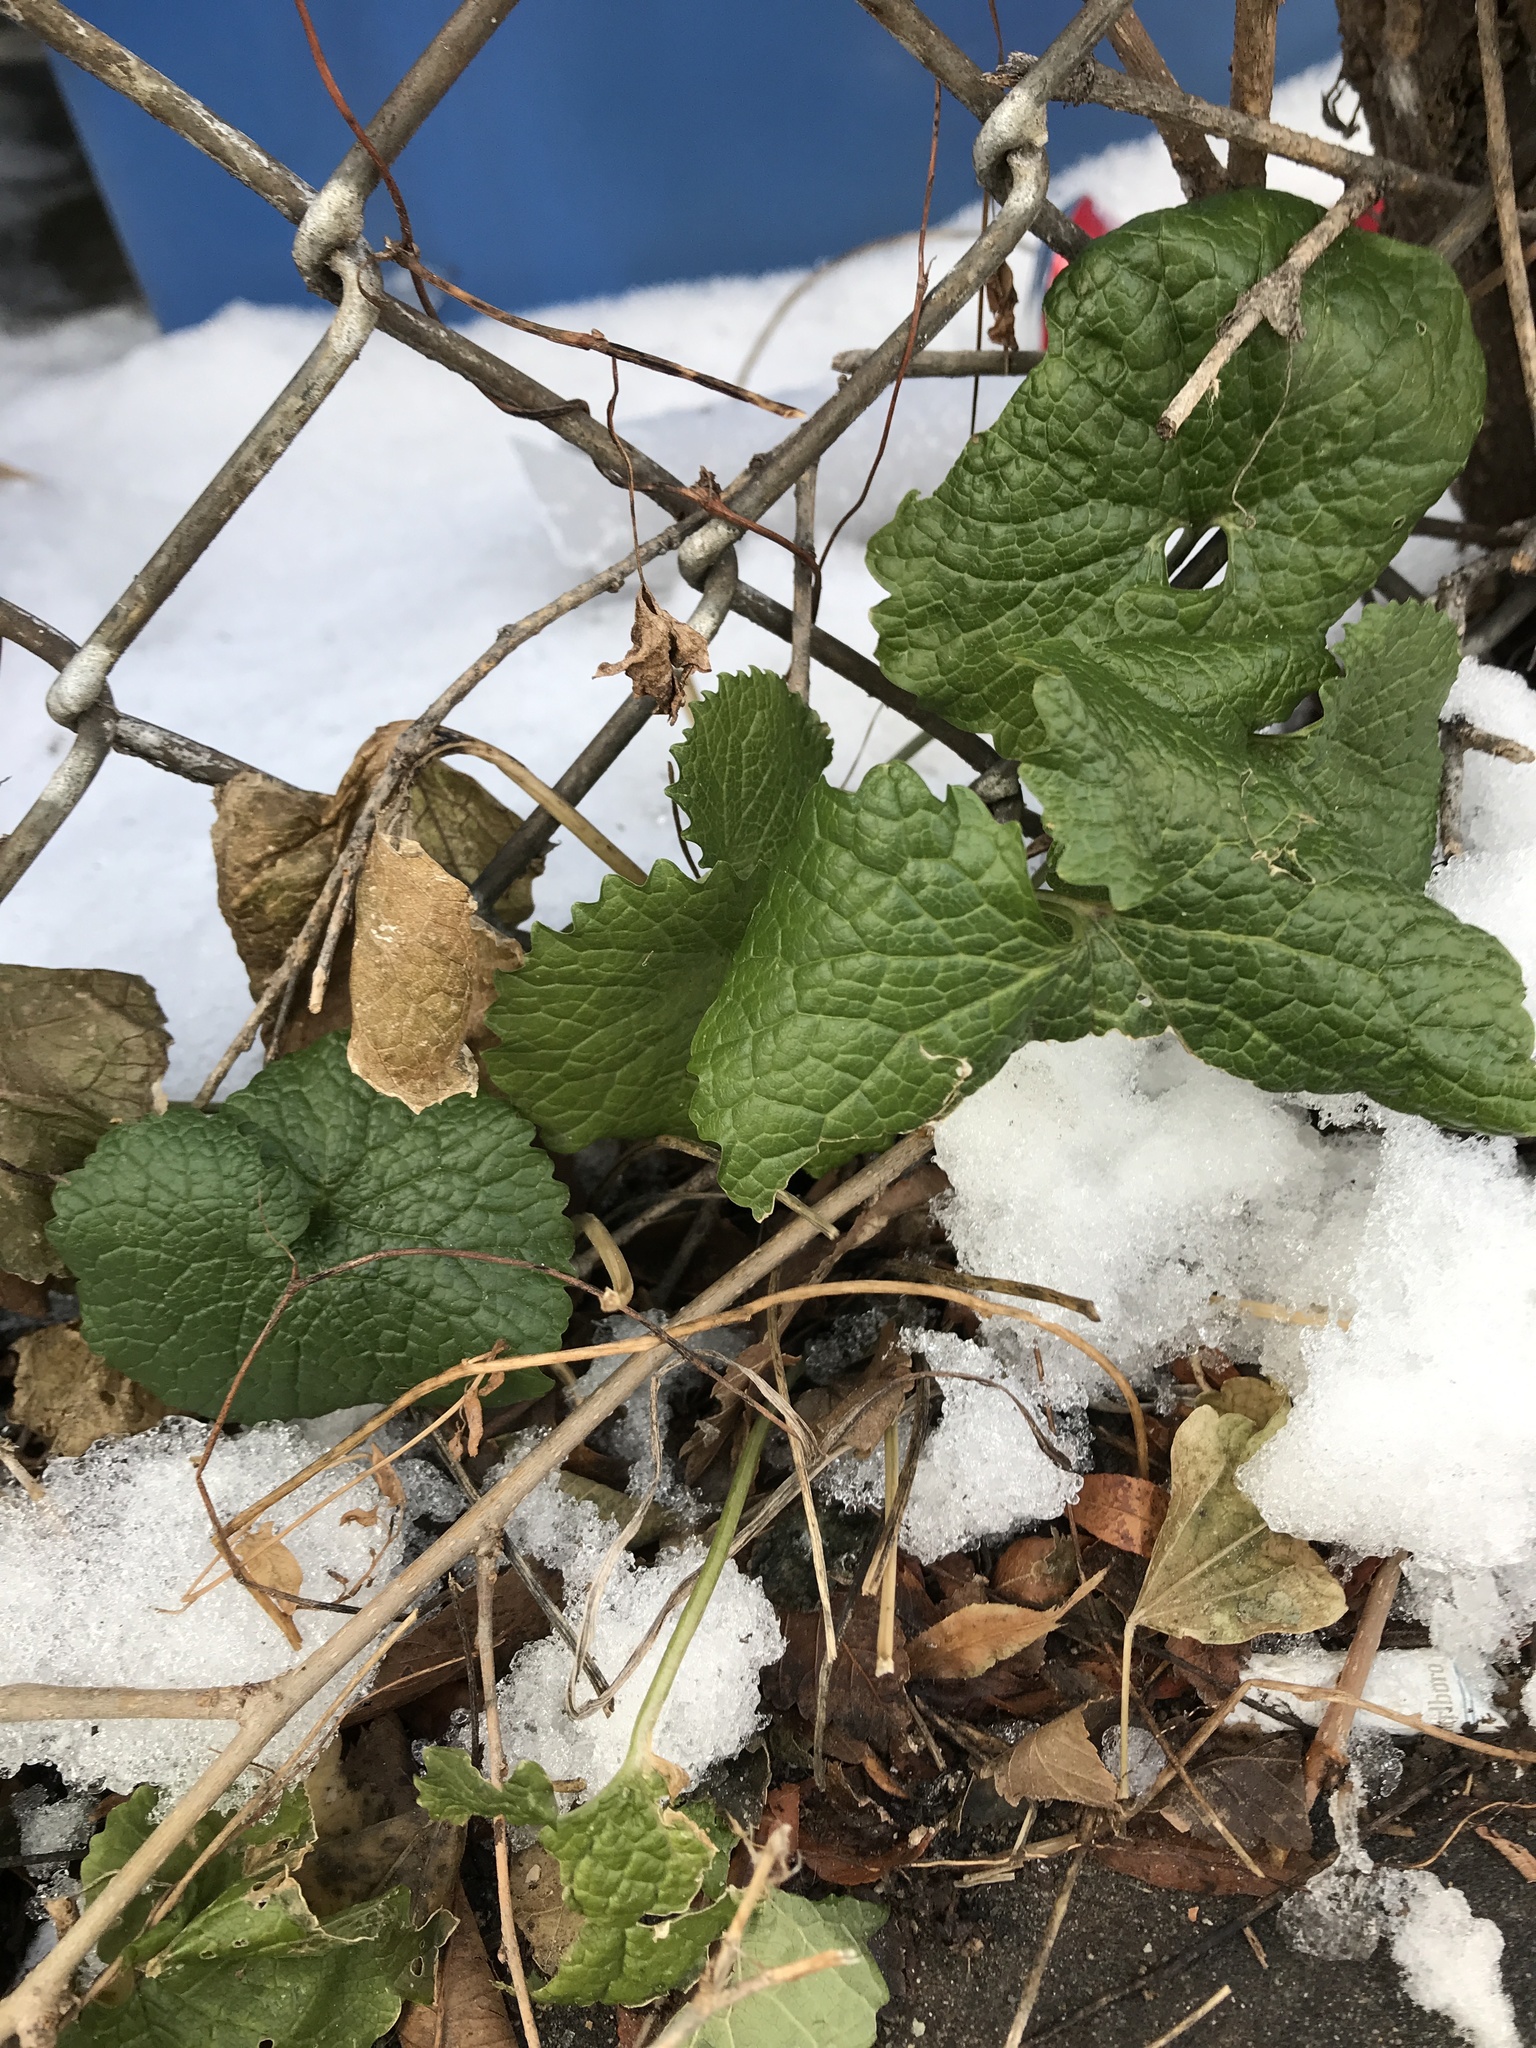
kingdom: Plantae
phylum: Tracheophyta
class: Magnoliopsida
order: Brassicales
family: Brassicaceae
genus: Alliaria
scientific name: Alliaria petiolata
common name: Garlic mustard
